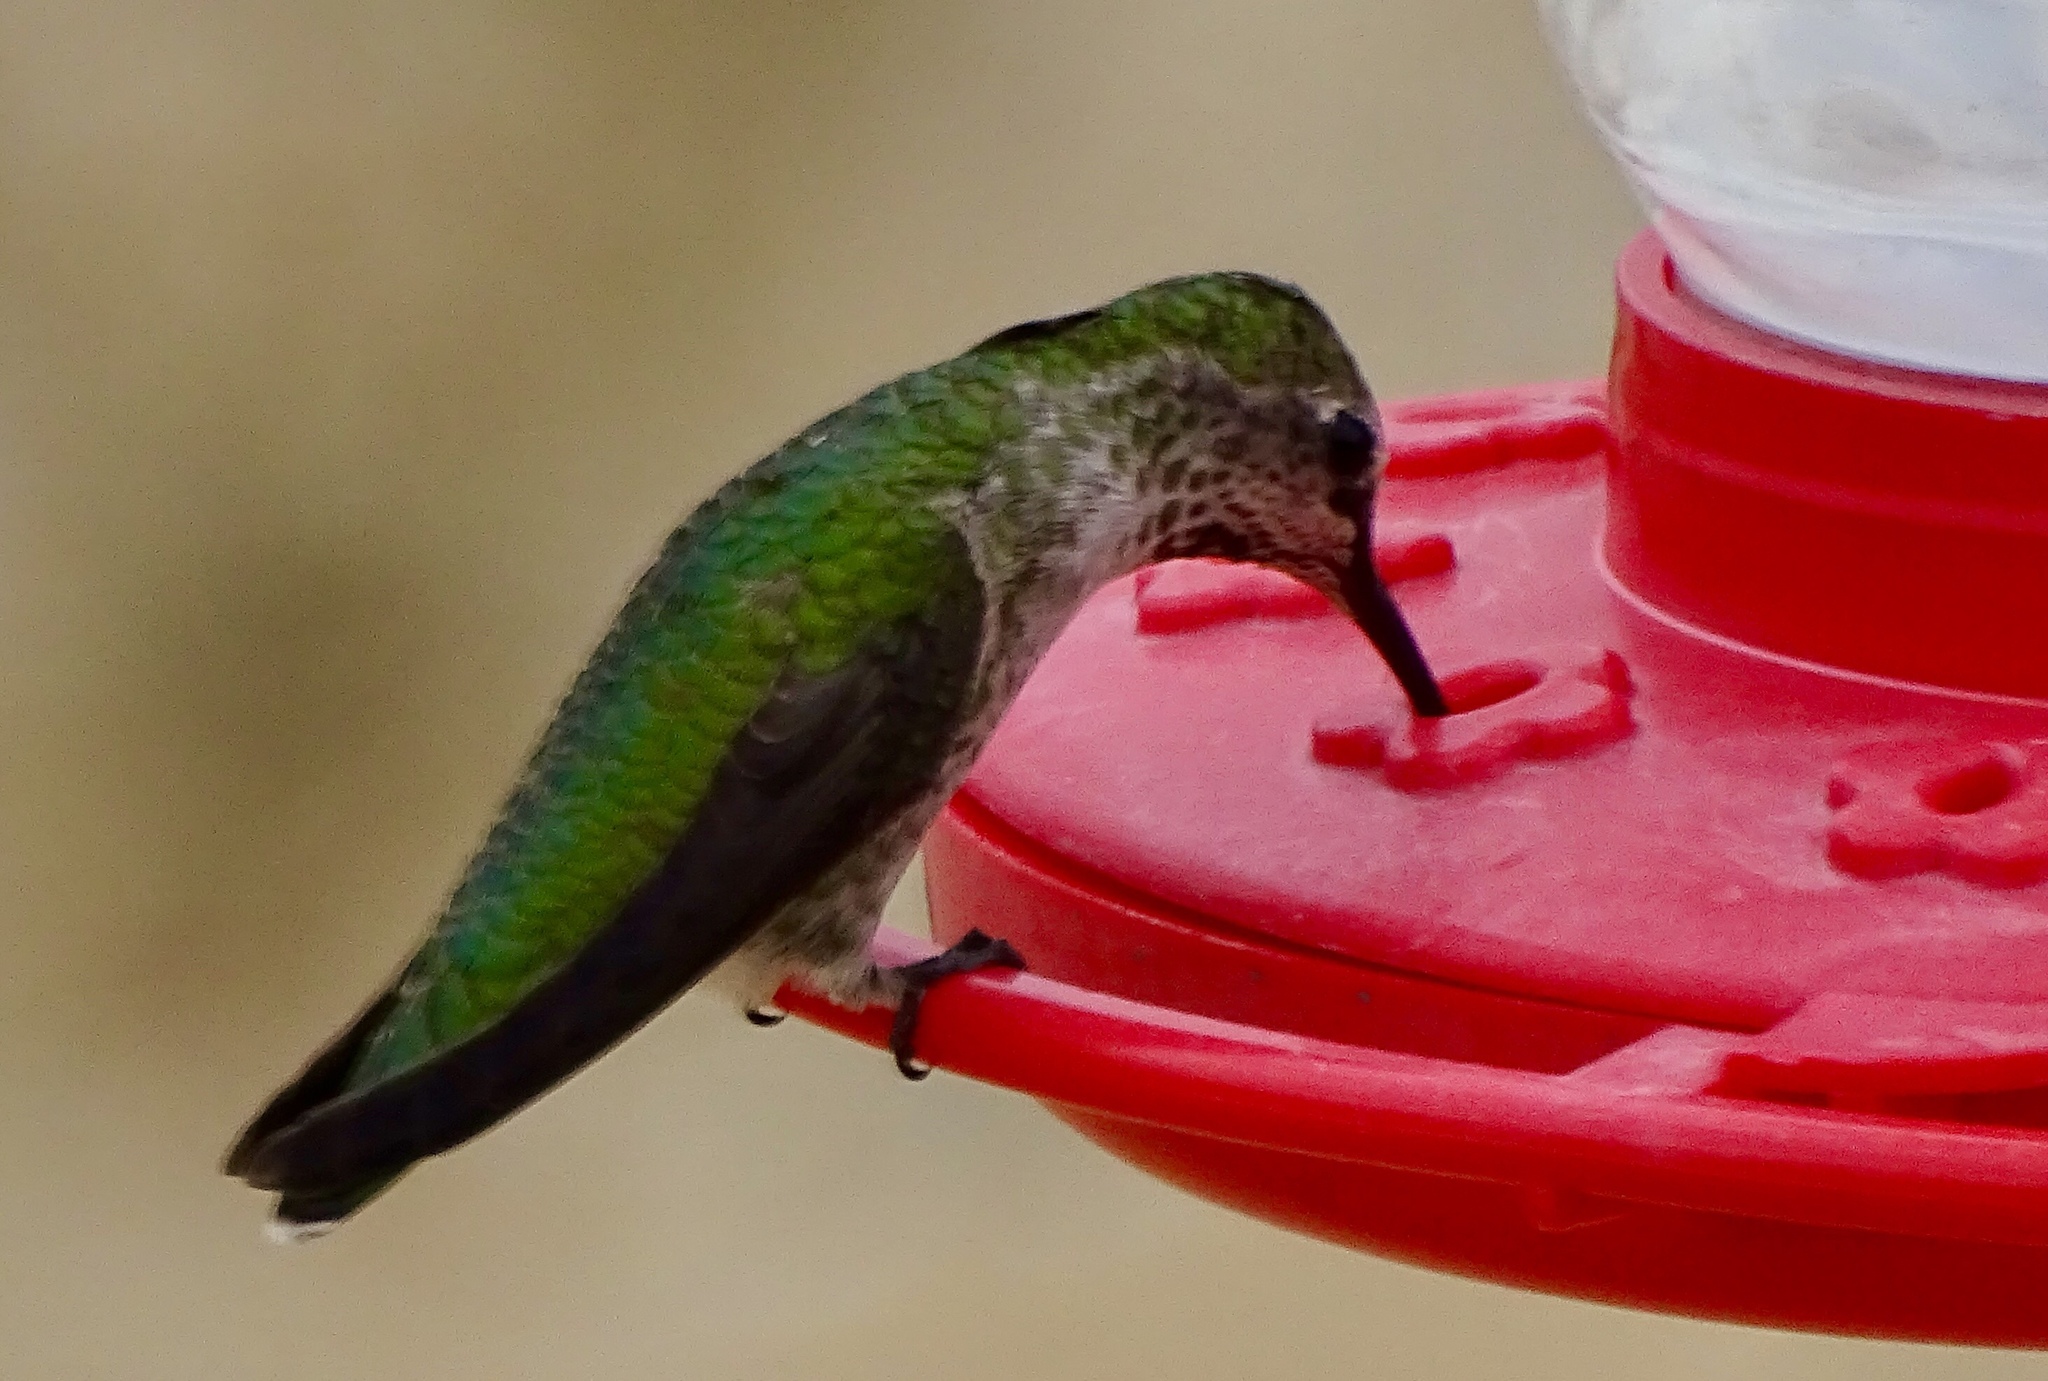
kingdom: Animalia
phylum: Chordata
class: Aves
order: Apodiformes
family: Trochilidae
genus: Calypte
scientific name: Calypte anna
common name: Anna's hummingbird
